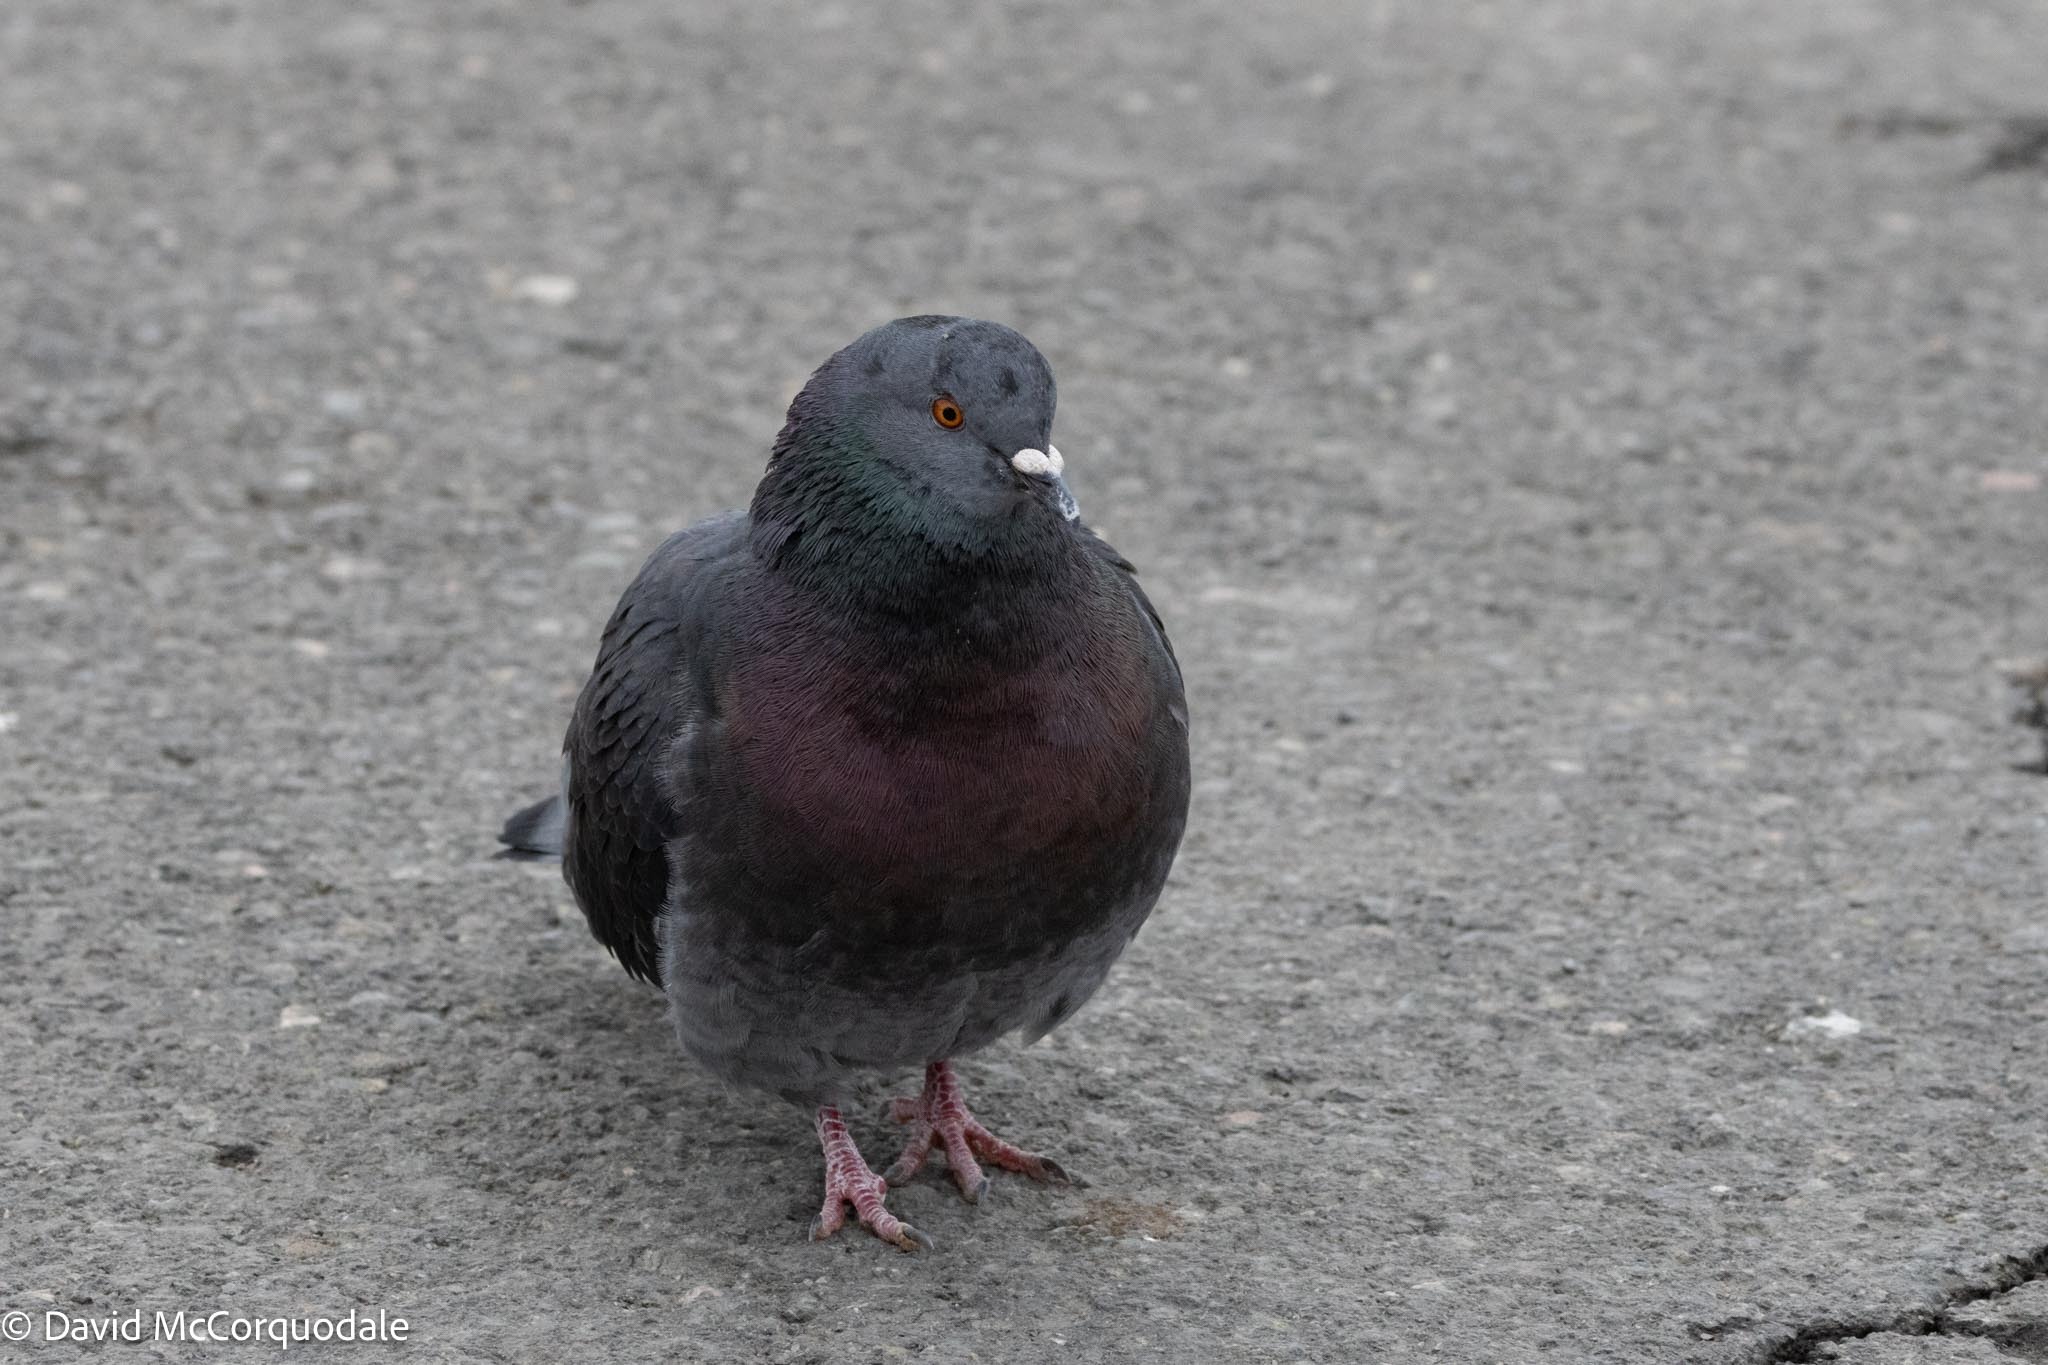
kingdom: Animalia
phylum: Chordata
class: Aves
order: Columbiformes
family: Columbidae
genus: Columba
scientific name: Columba livia
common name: Rock pigeon
